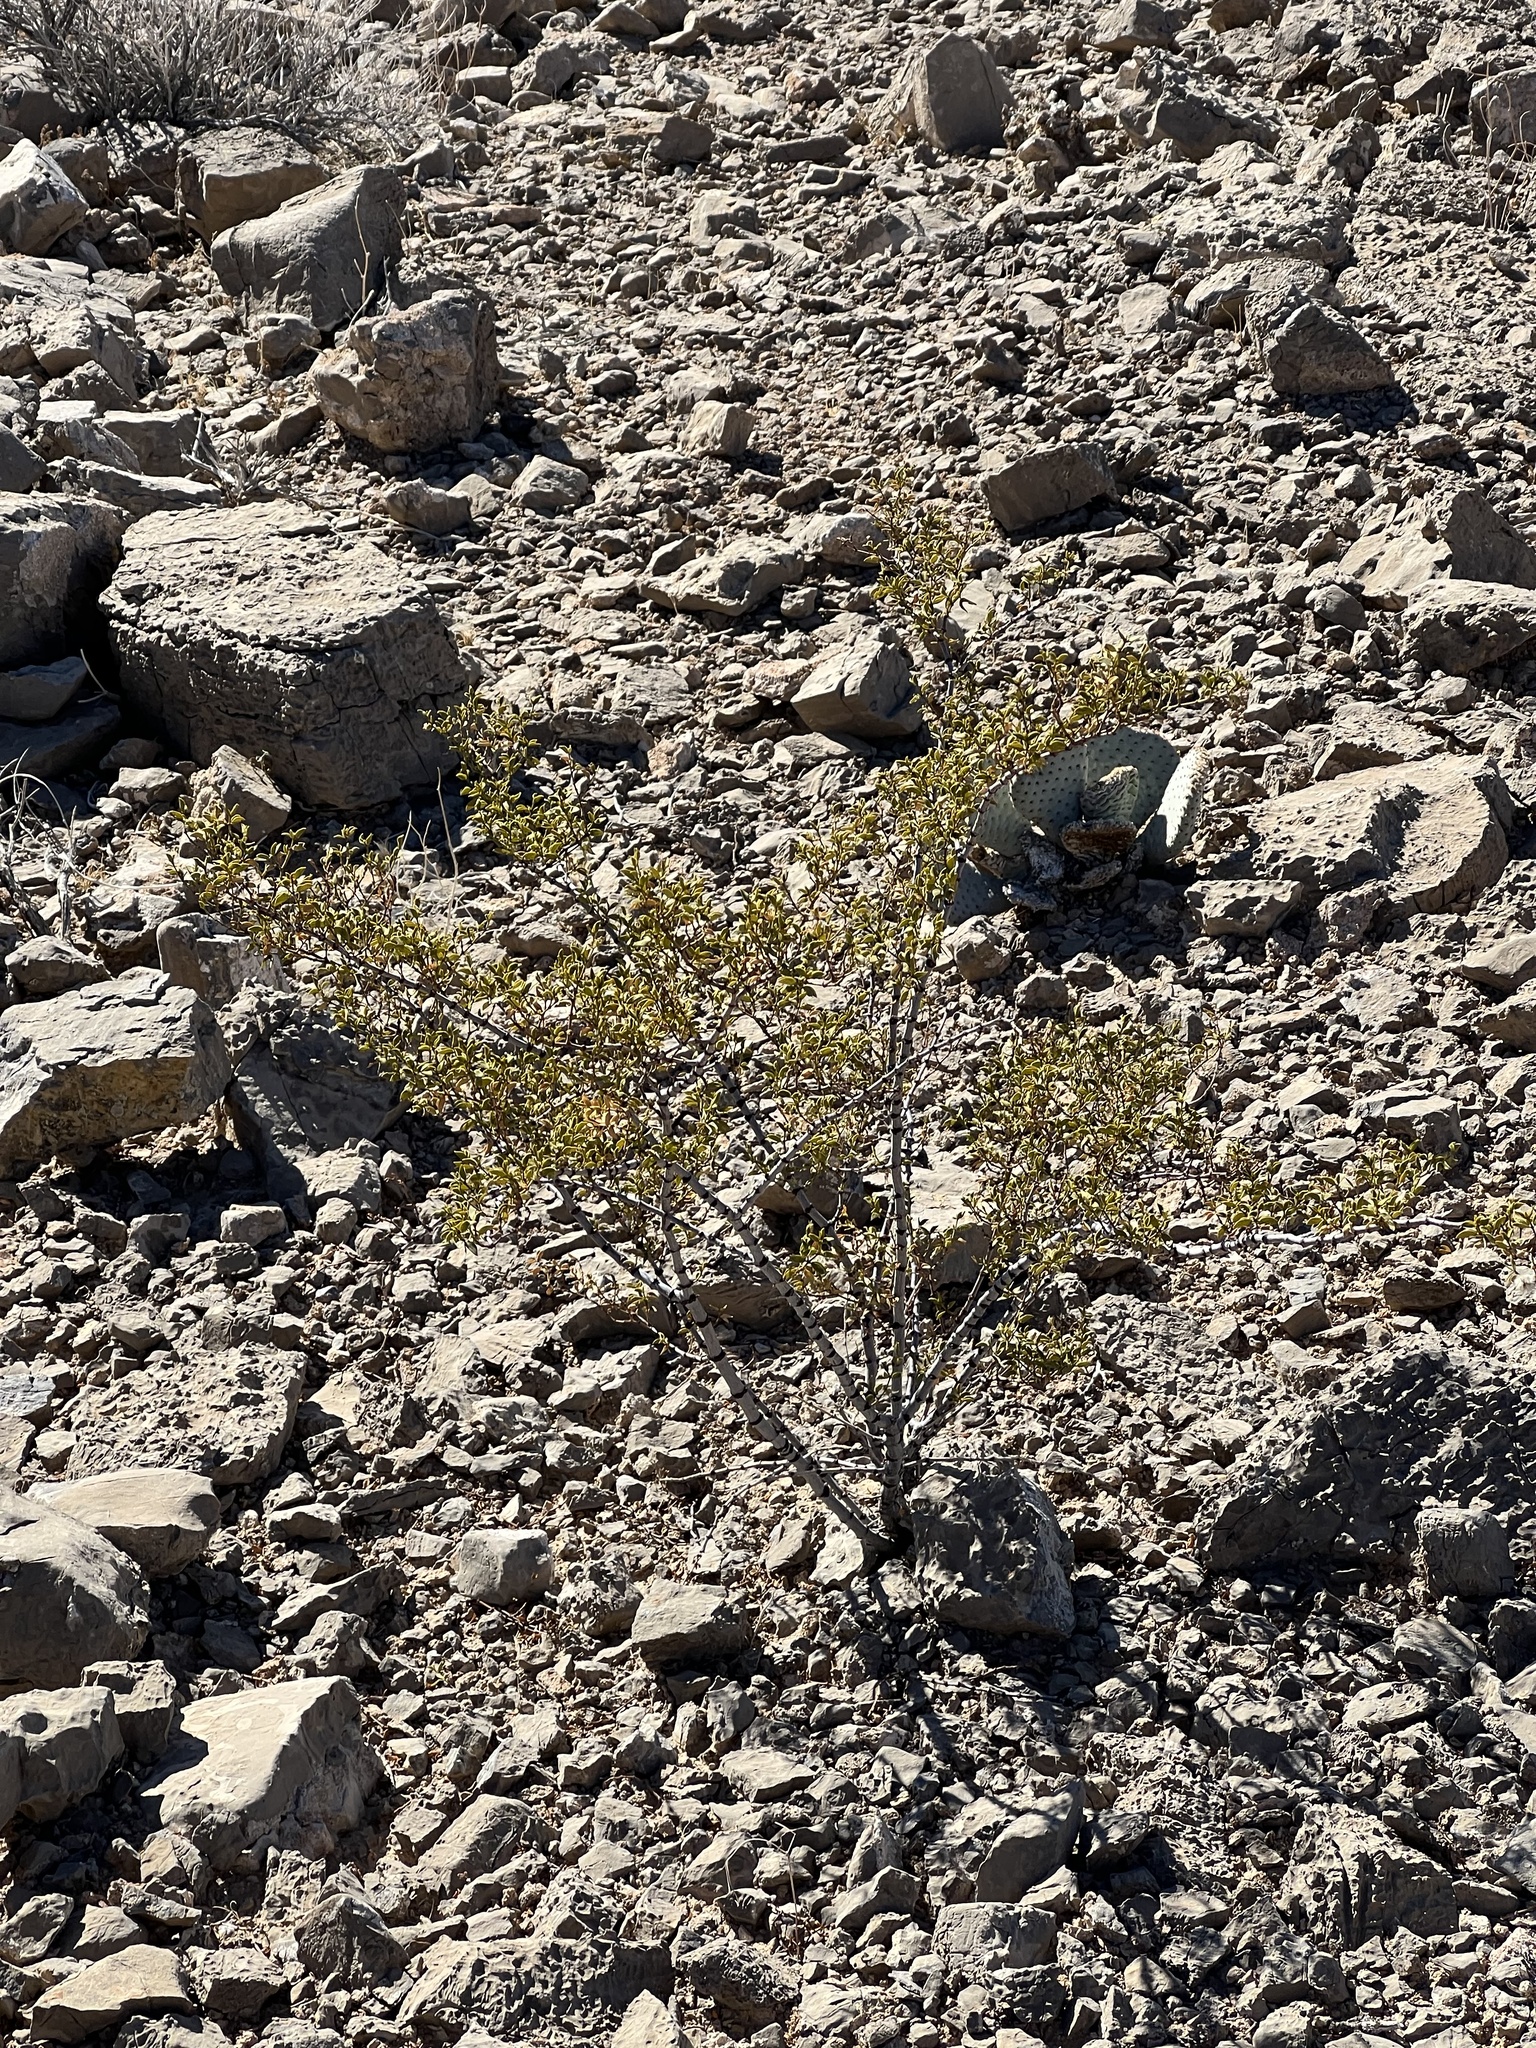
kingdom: Plantae
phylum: Tracheophyta
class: Magnoliopsida
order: Zygophyllales
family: Zygophyllaceae
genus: Larrea
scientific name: Larrea tridentata
